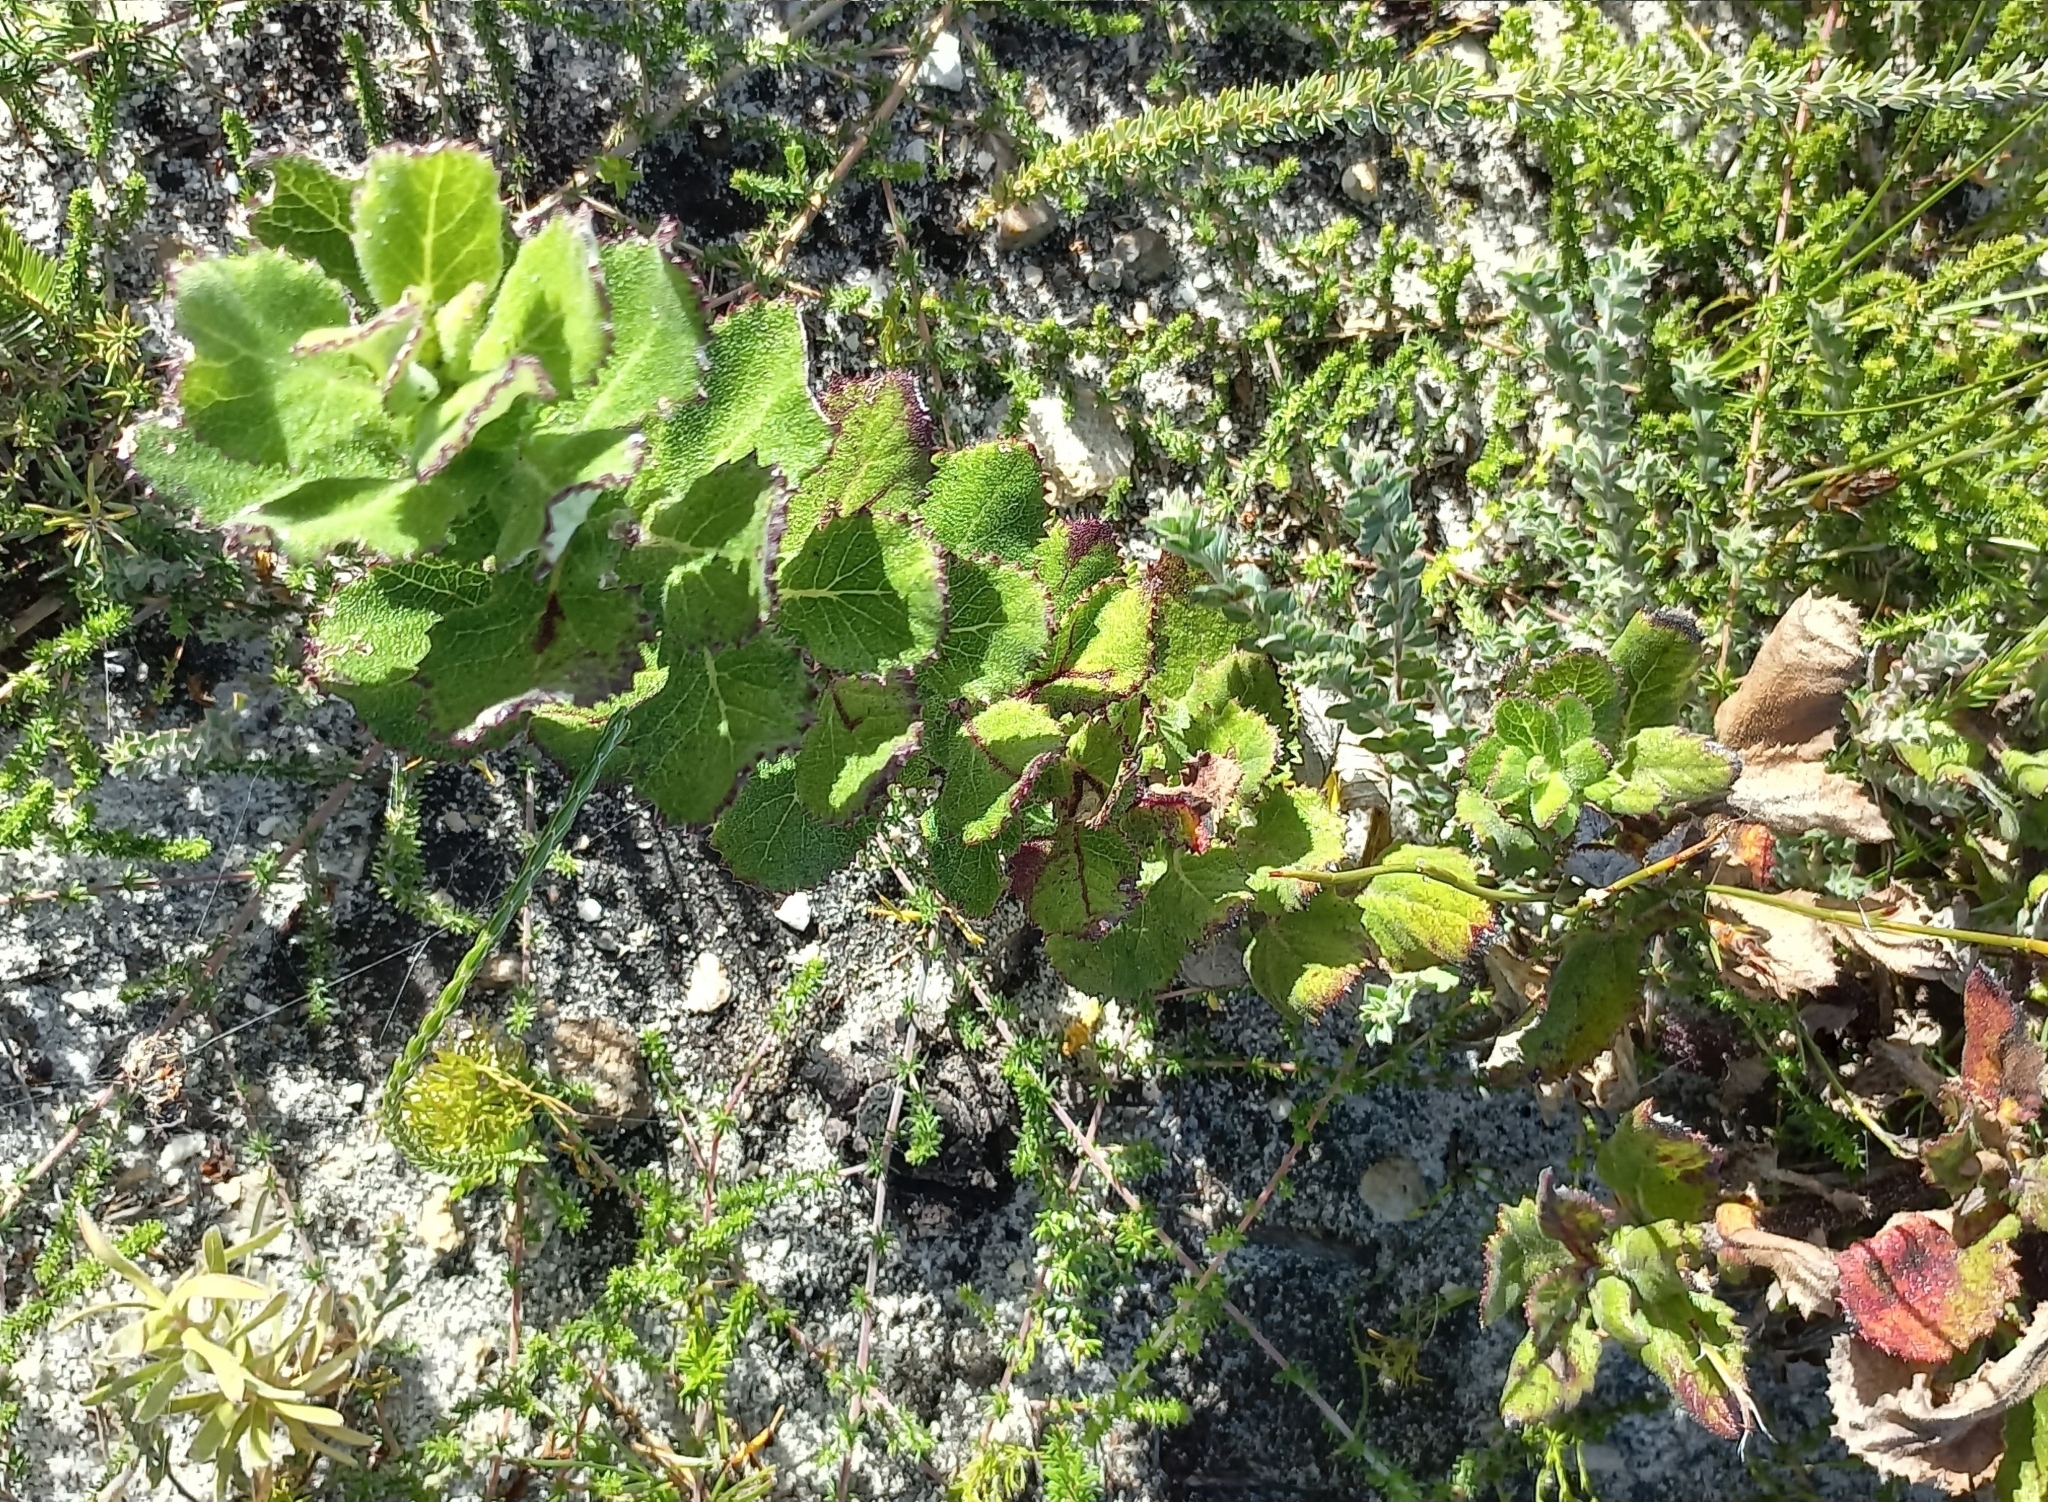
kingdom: Plantae
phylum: Tracheophyta
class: Magnoliopsida
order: Asterales
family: Asteraceae
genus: Senecio
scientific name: Senecio rigidus
